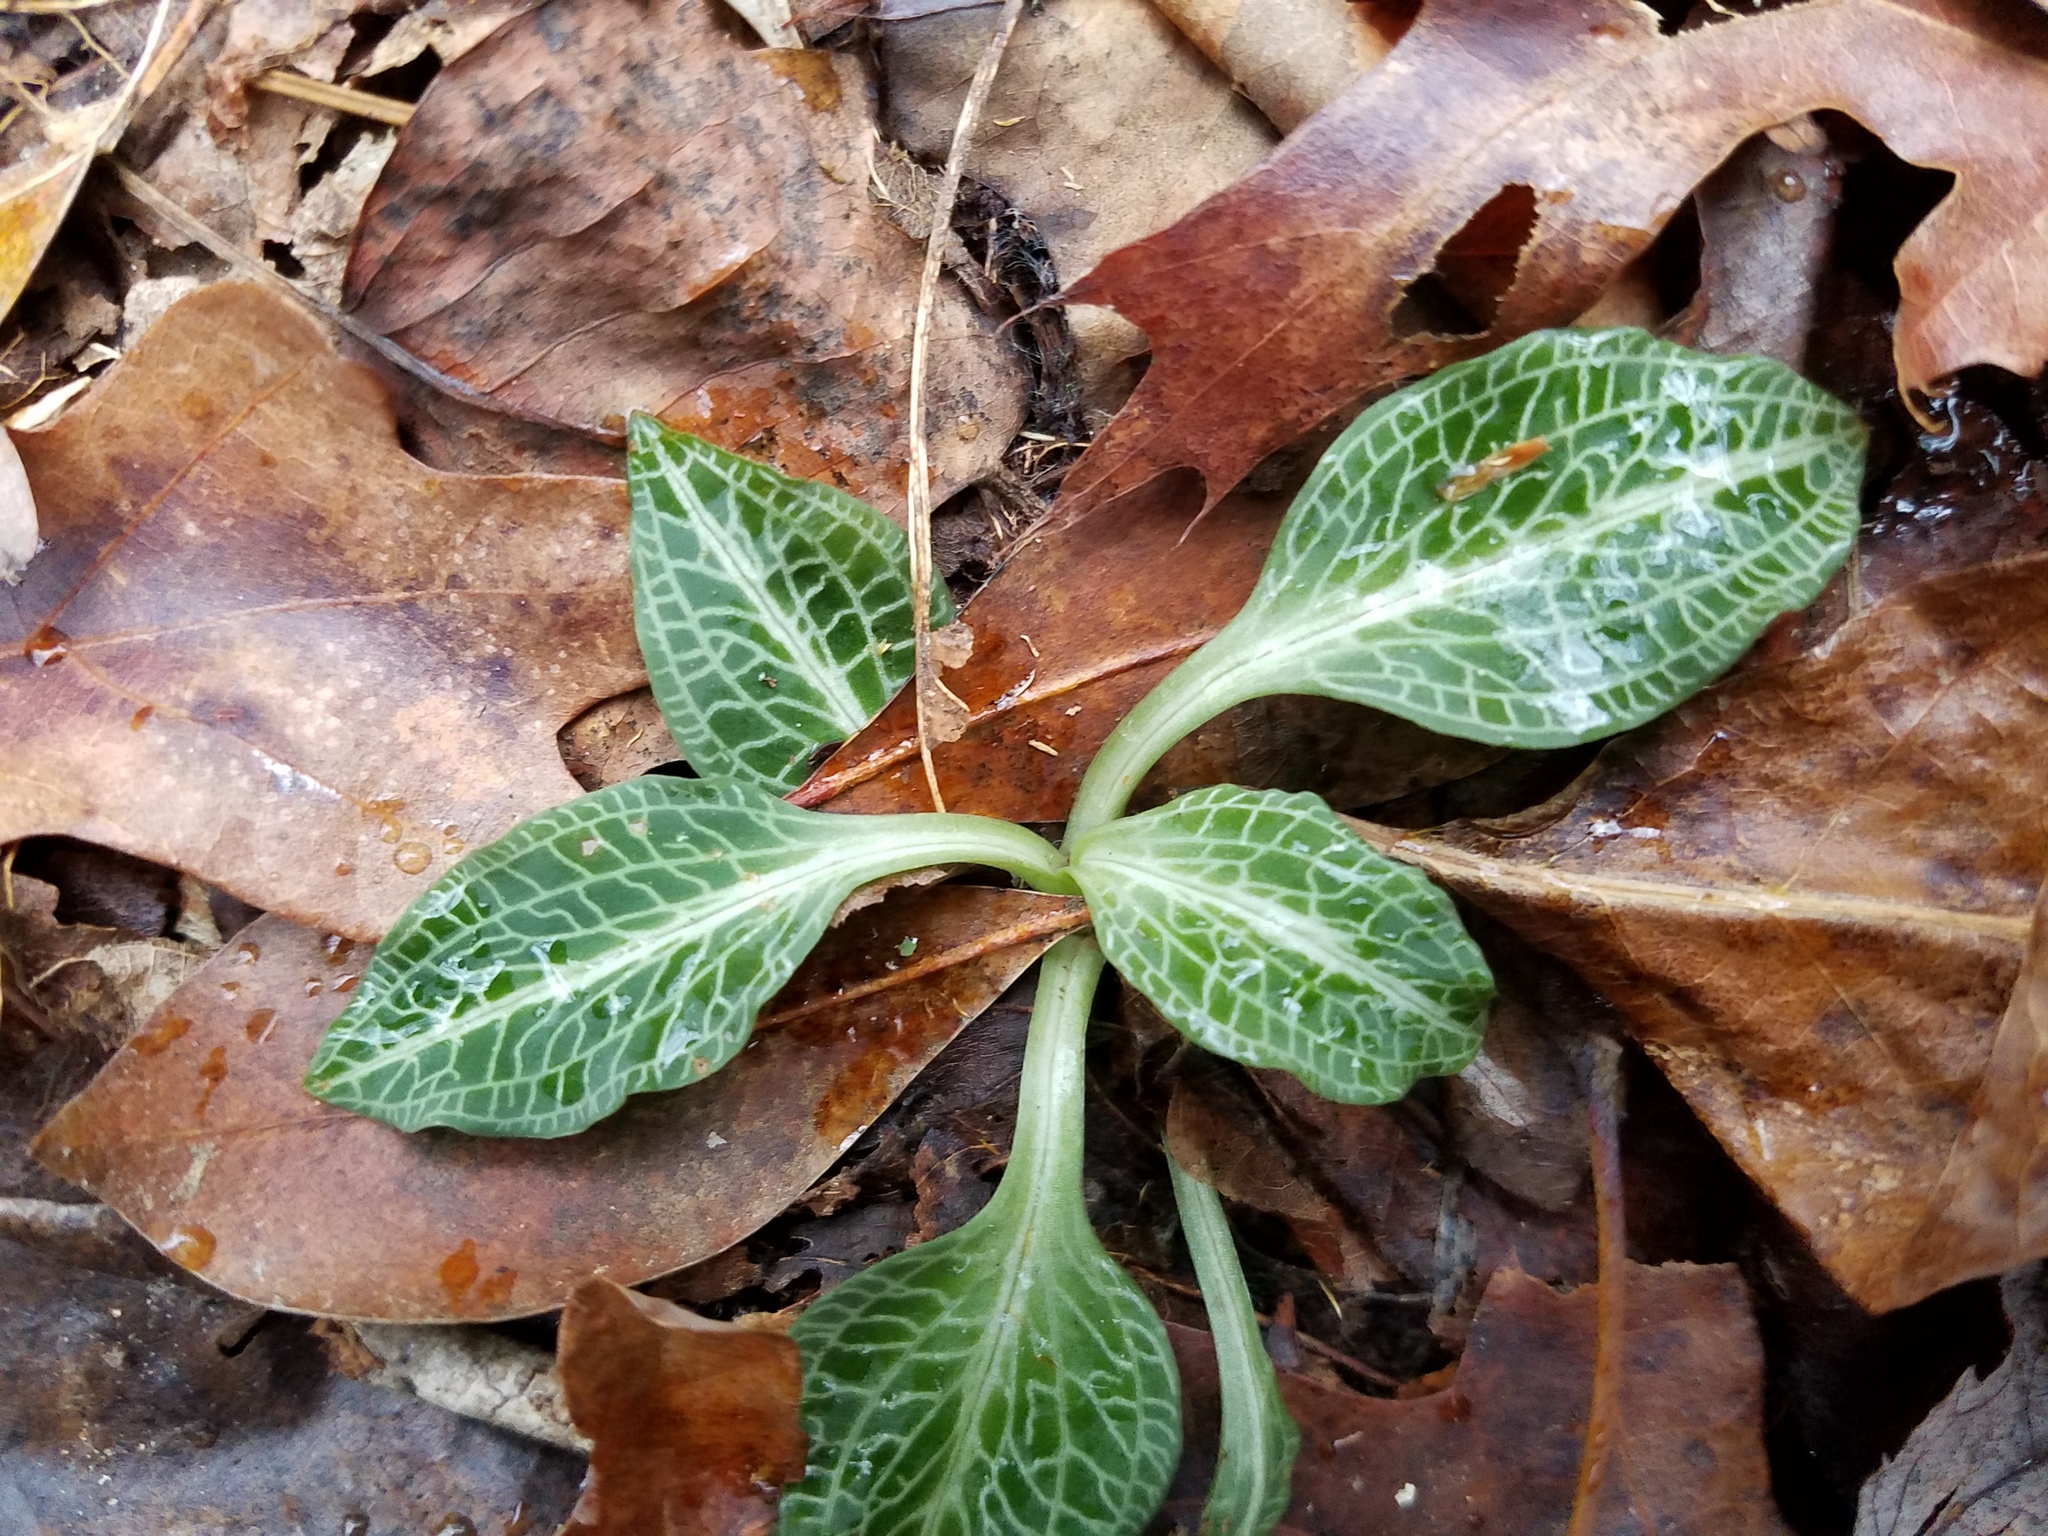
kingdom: Plantae
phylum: Tracheophyta
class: Liliopsida
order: Asparagales
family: Orchidaceae
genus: Goodyera
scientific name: Goodyera pubescens
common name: Downy rattlesnake-plantain
